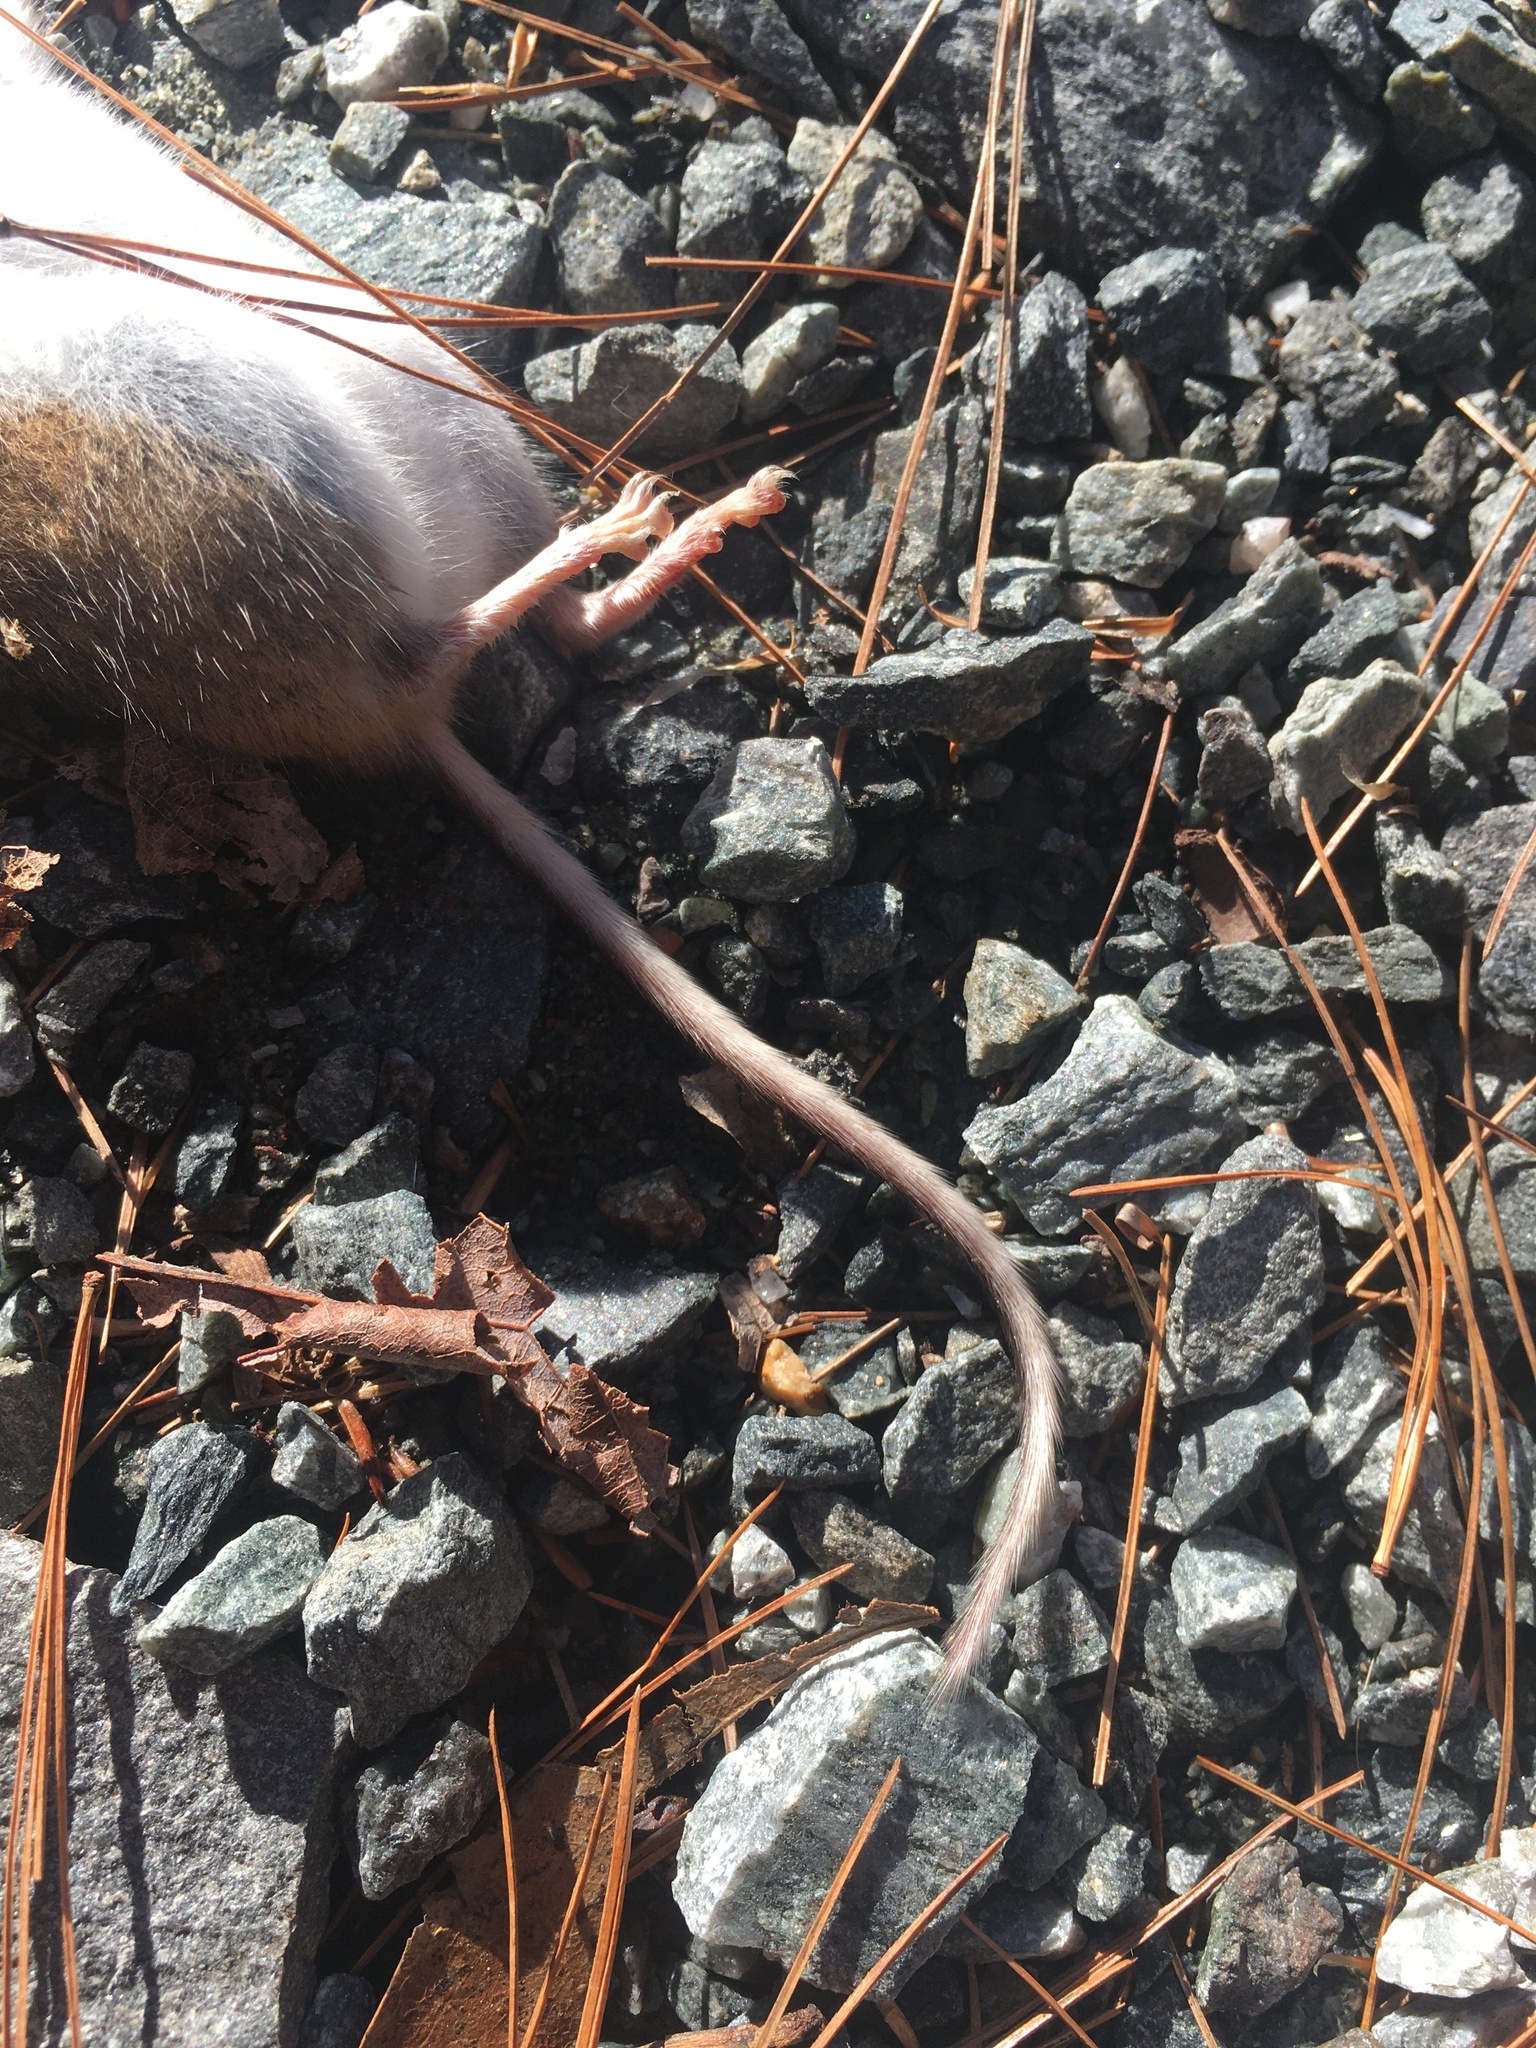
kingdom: Animalia
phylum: Chordata
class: Mammalia
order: Rodentia
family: Cricetidae
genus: Peromyscus
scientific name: Peromyscus leucopus
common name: White-footed deermouse
